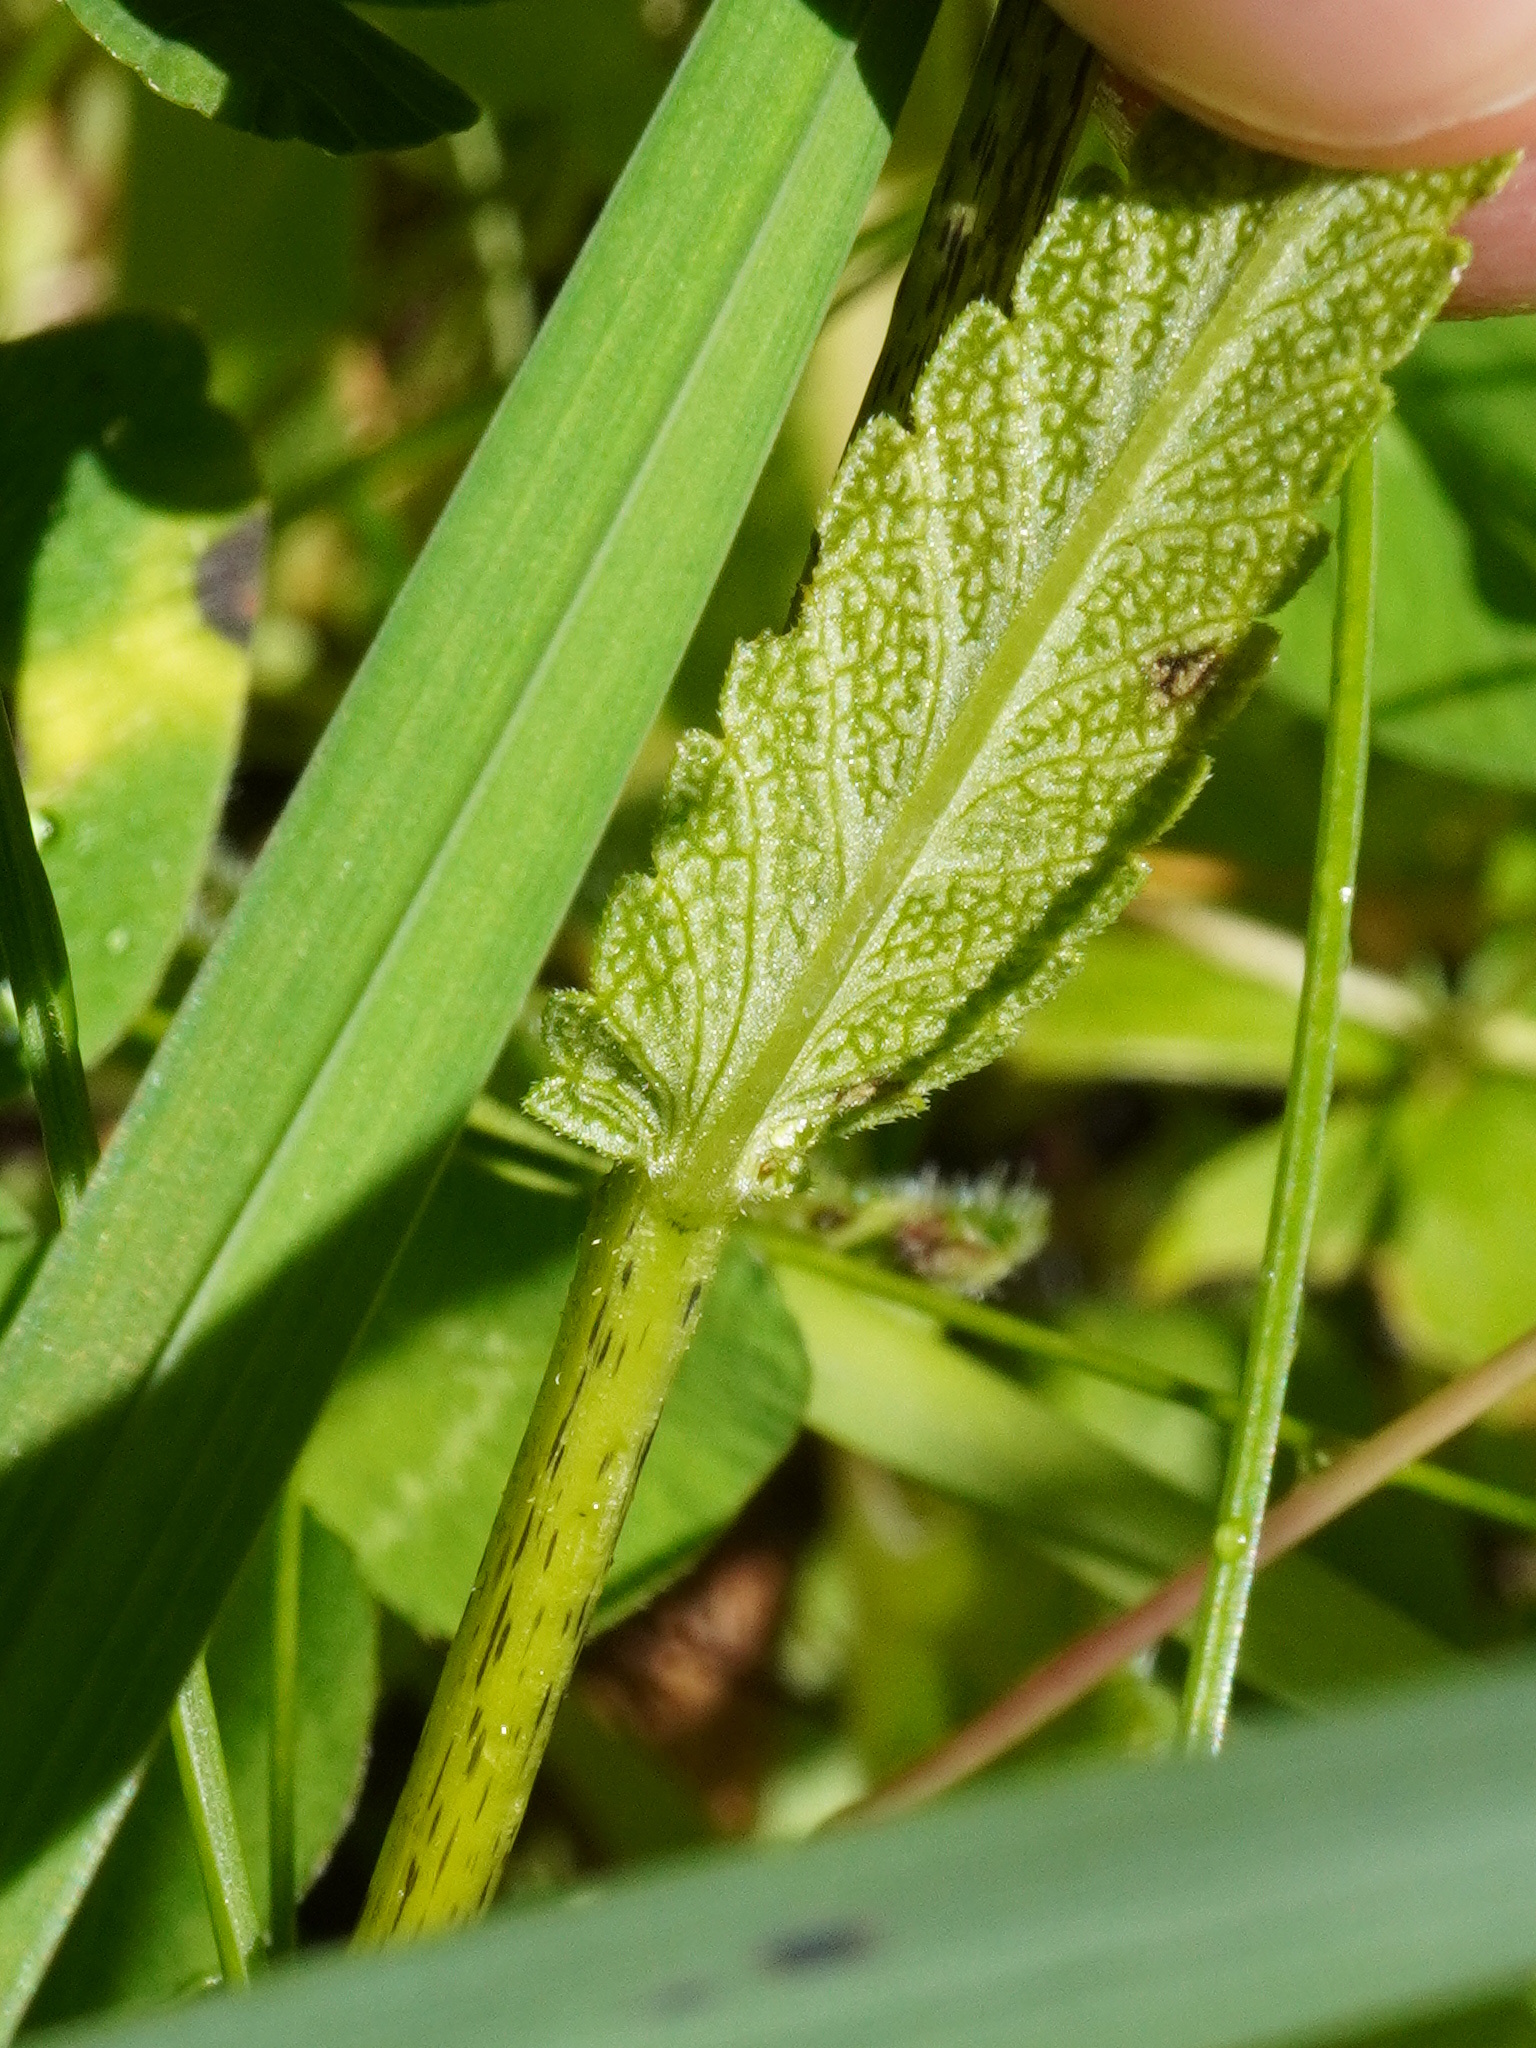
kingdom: Plantae
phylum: Tracheophyta
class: Magnoliopsida
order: Lamiales
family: Orobanchaceae
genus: Rhinanthus
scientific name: Rhinanthus glacialis
